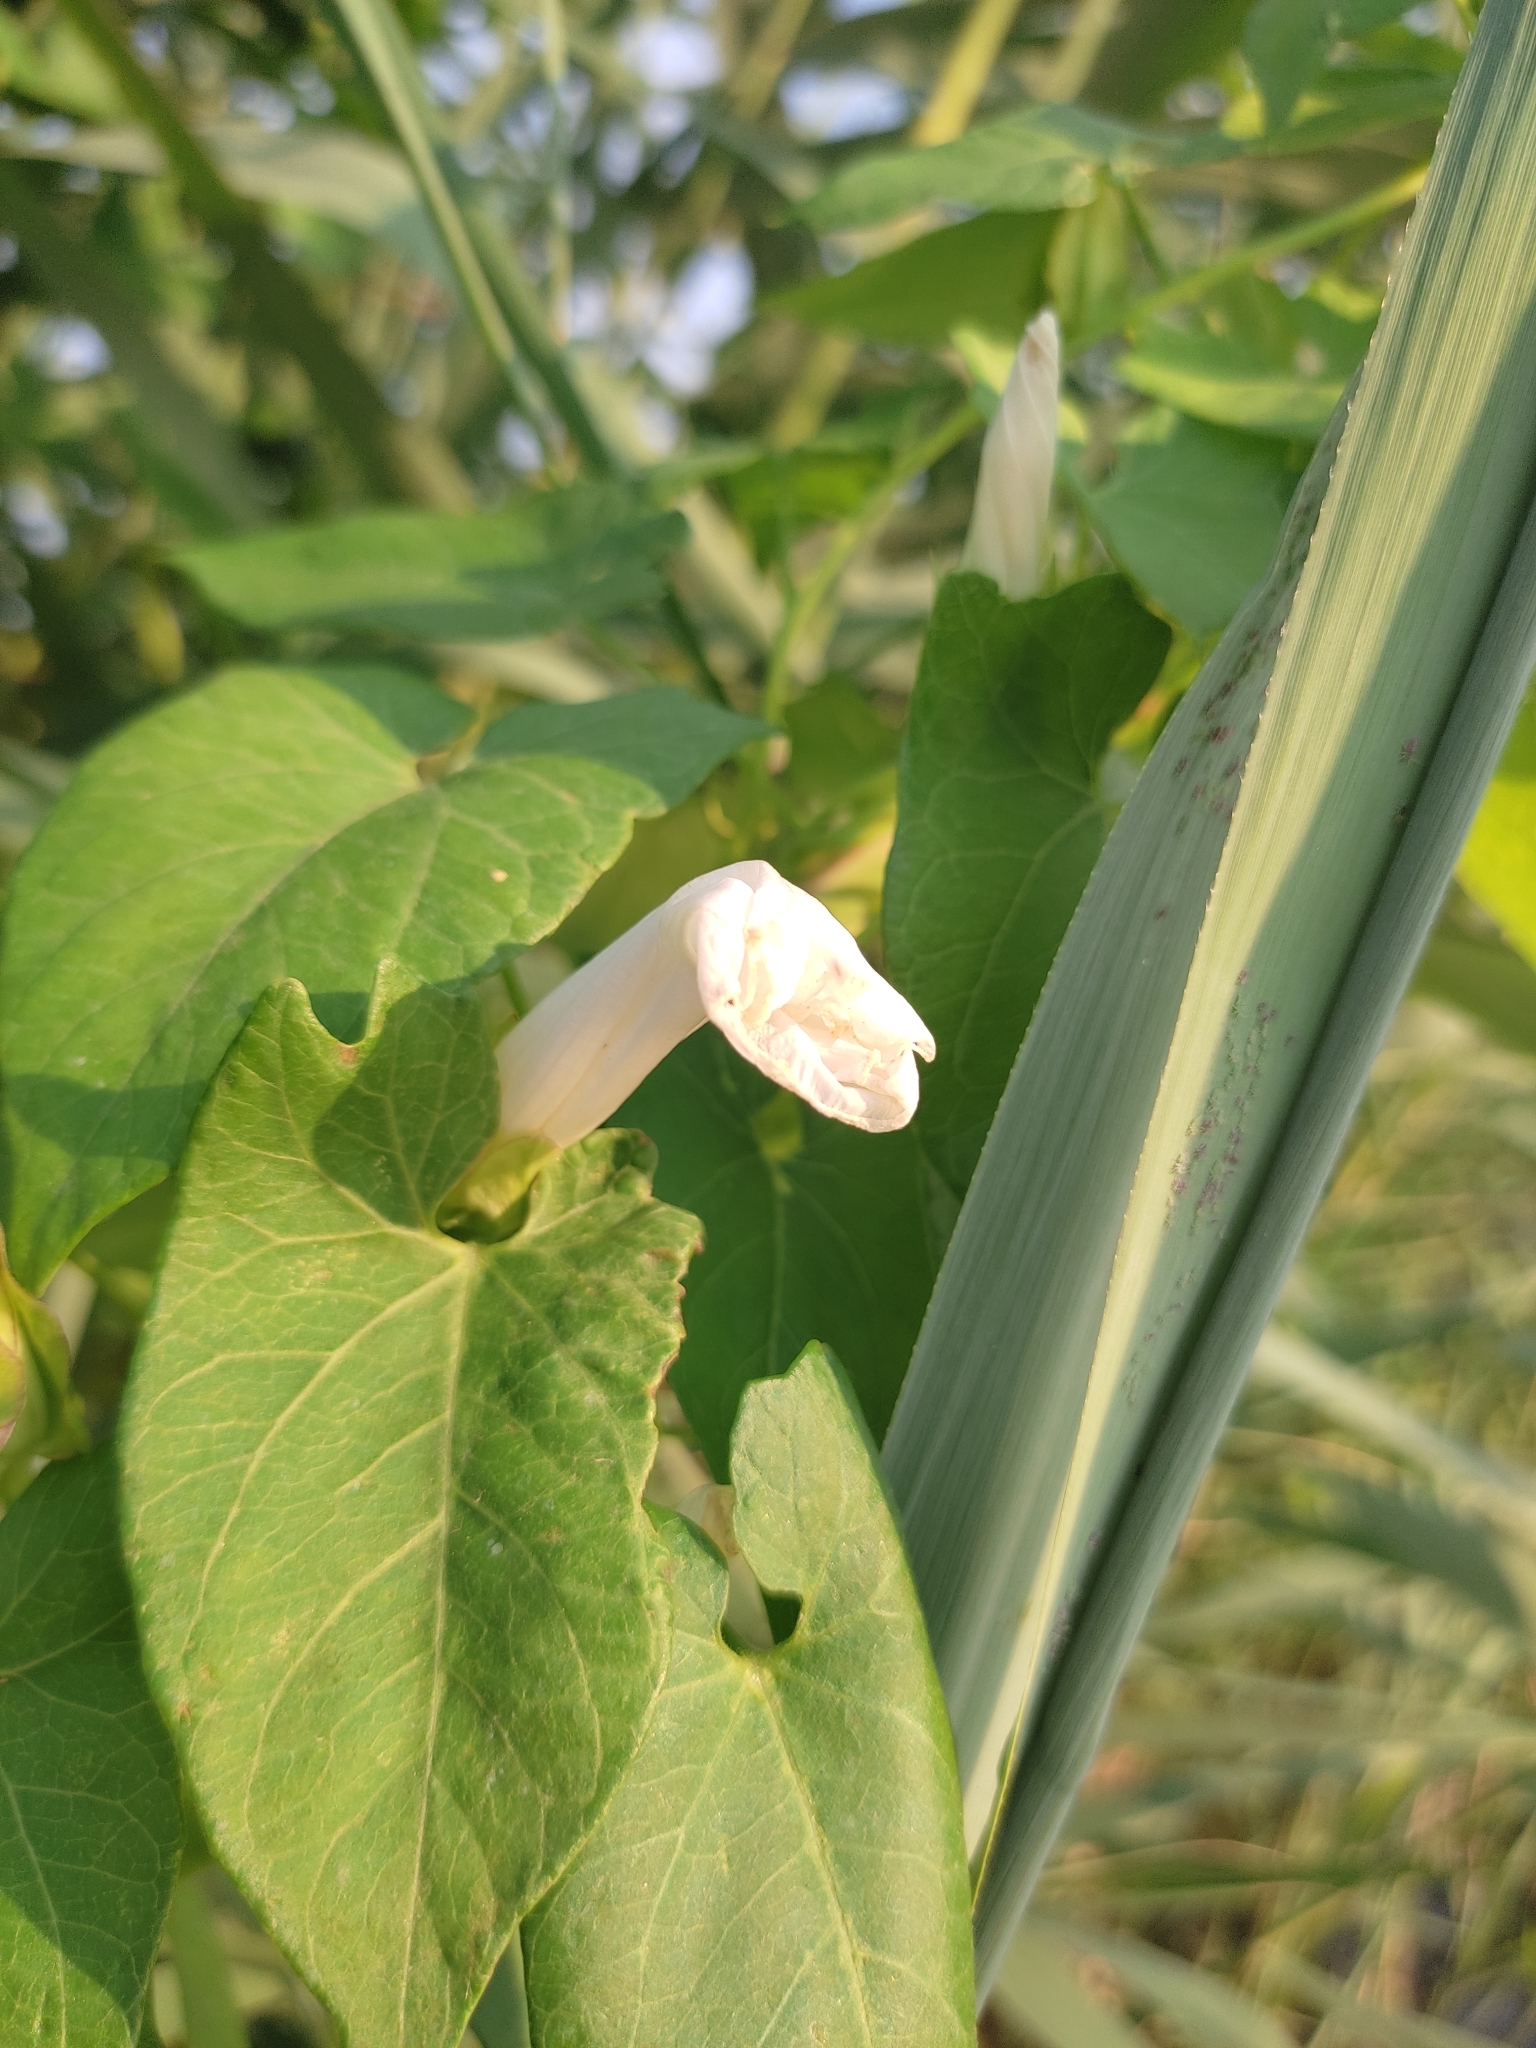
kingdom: Plantae
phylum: Tracheophyta
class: Magnoliopsida
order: Solanales
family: Convolvulaceae
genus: Calystegia
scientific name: Calystegia sepium
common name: Hedge bindweed
